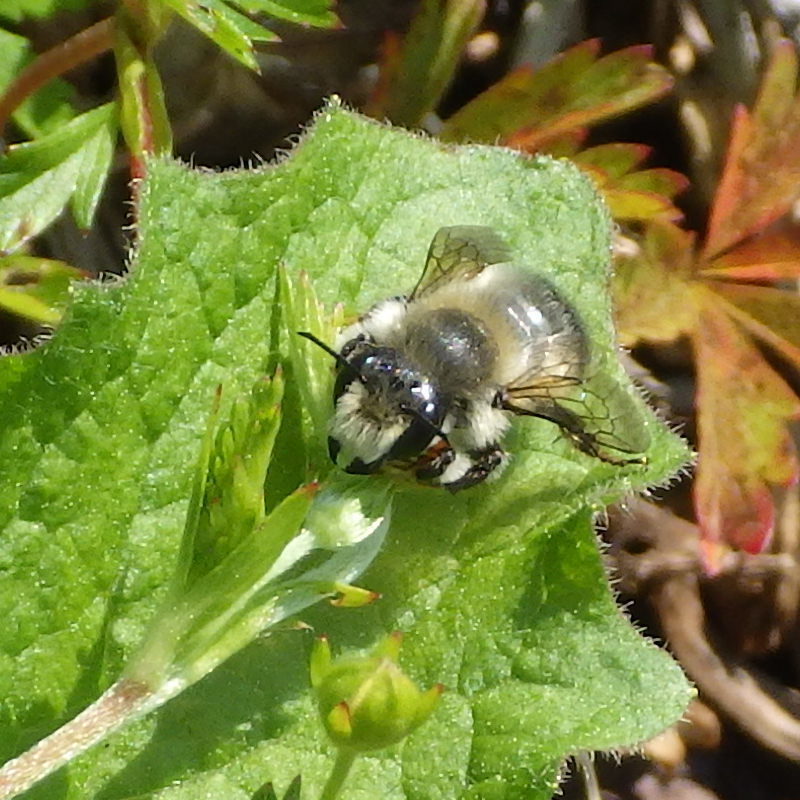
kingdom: Animalia
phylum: Arthropoda
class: Insecta
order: Hymenoptera
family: Megachilidae
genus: Megachile
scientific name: Megachile melanophaea
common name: Black-and-gray leafcutter bee
